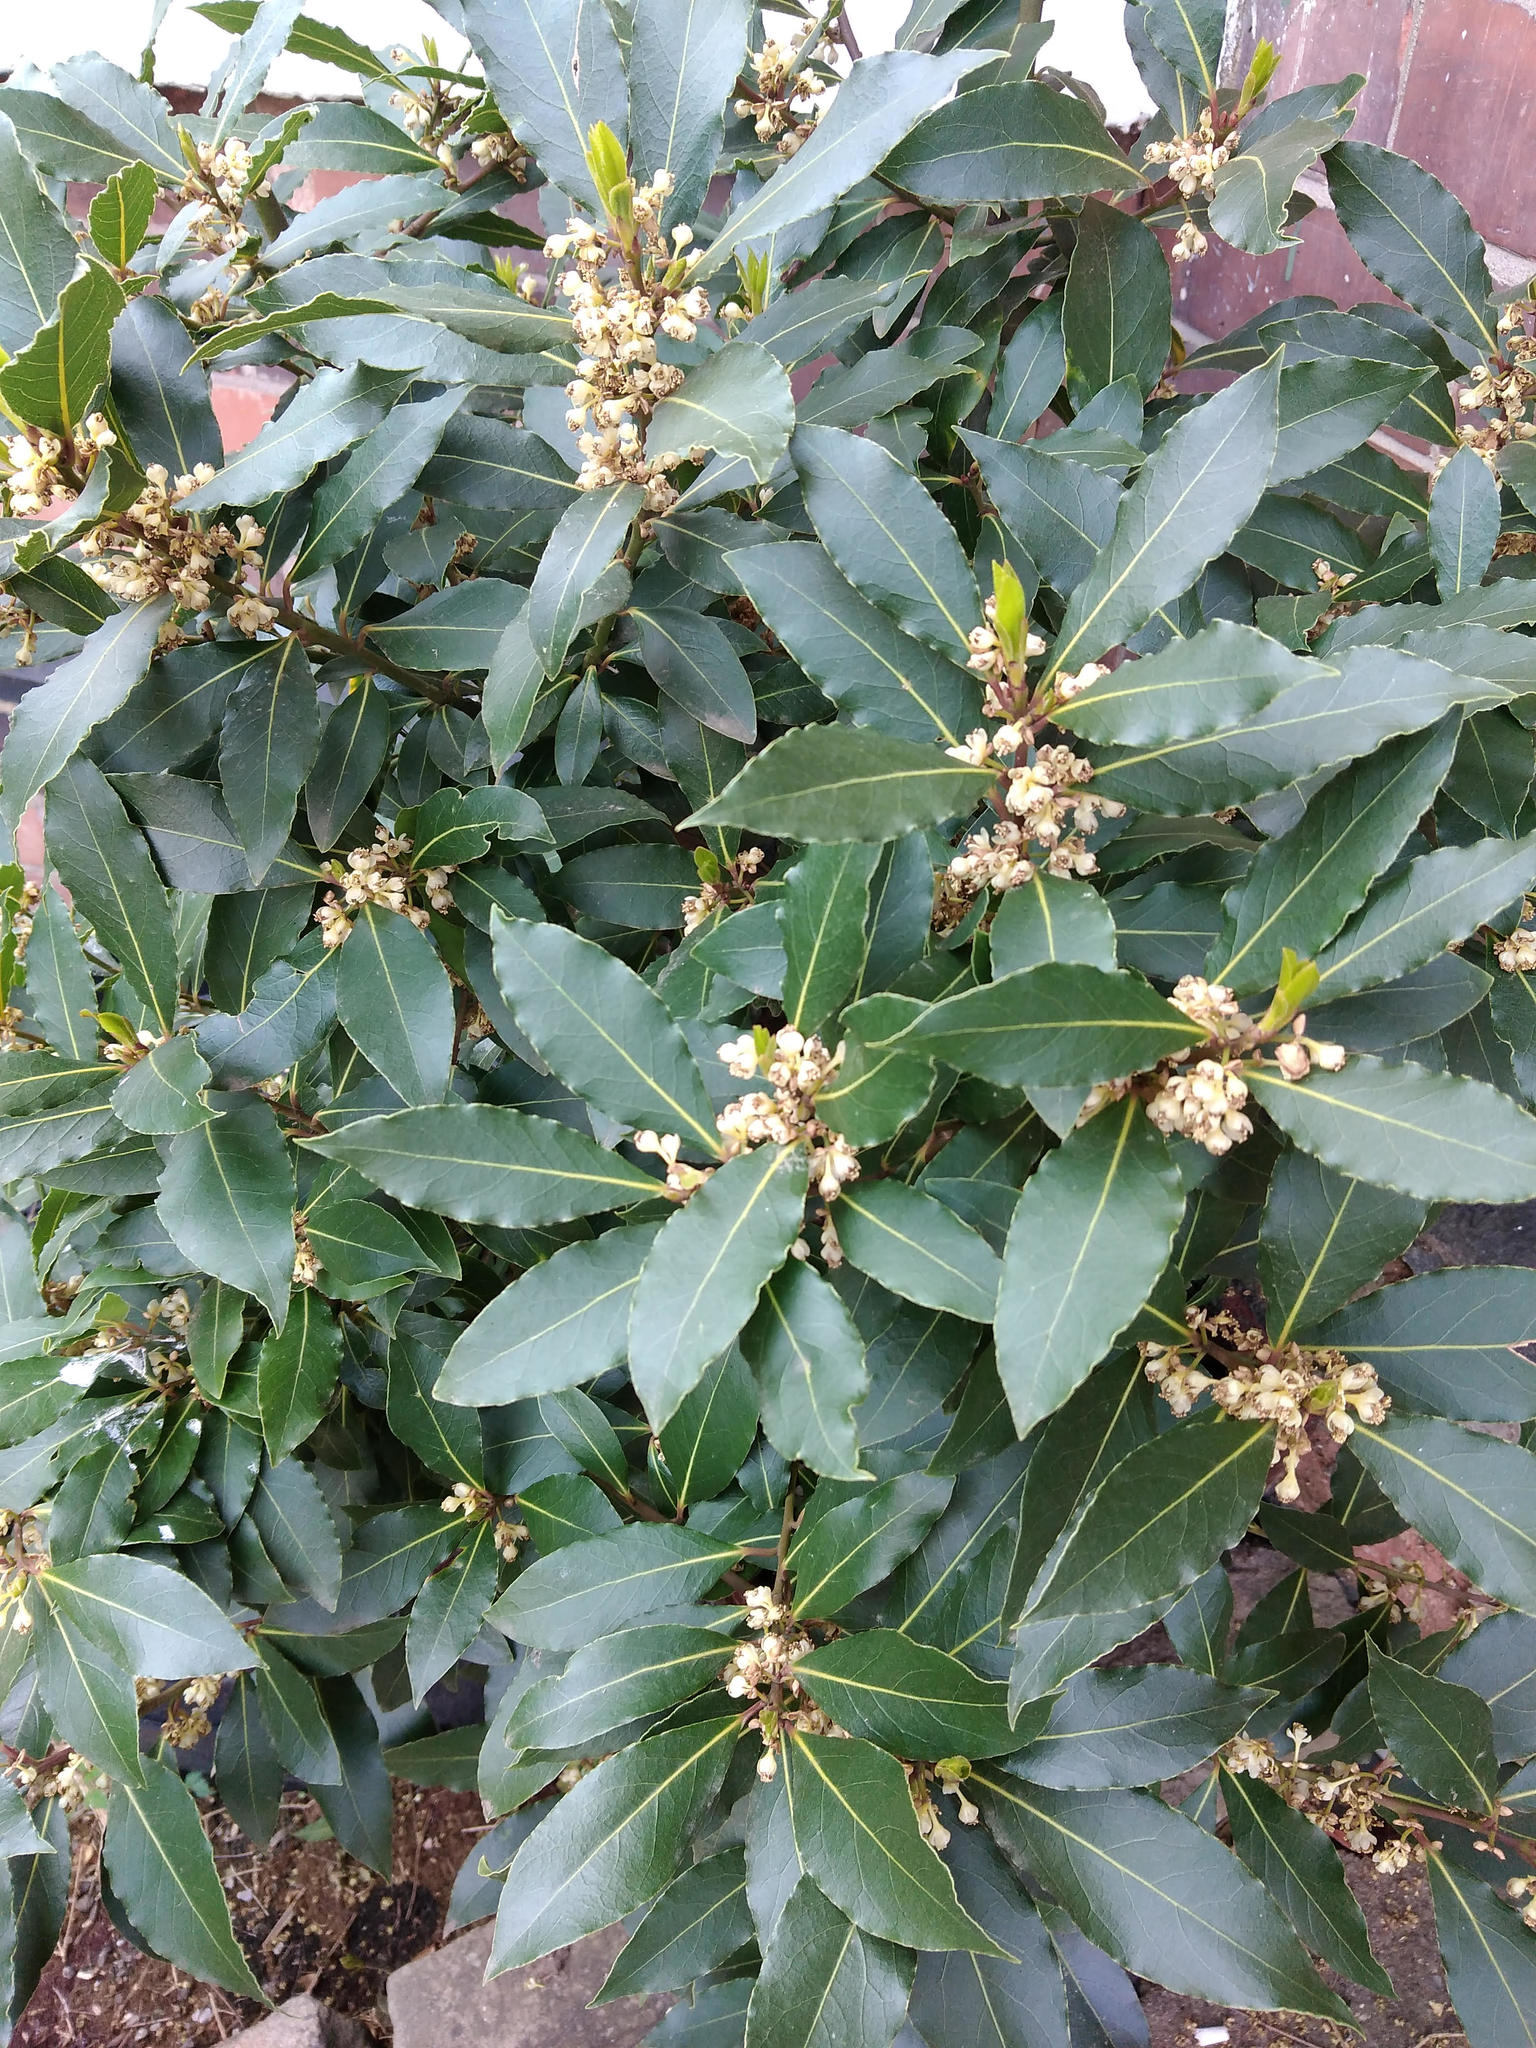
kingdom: Plantae
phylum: Tracheophyta
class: Magnoliopsida
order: Laurales
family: Lauraceae
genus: Laurus
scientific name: Laurus nobilis
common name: Bay
